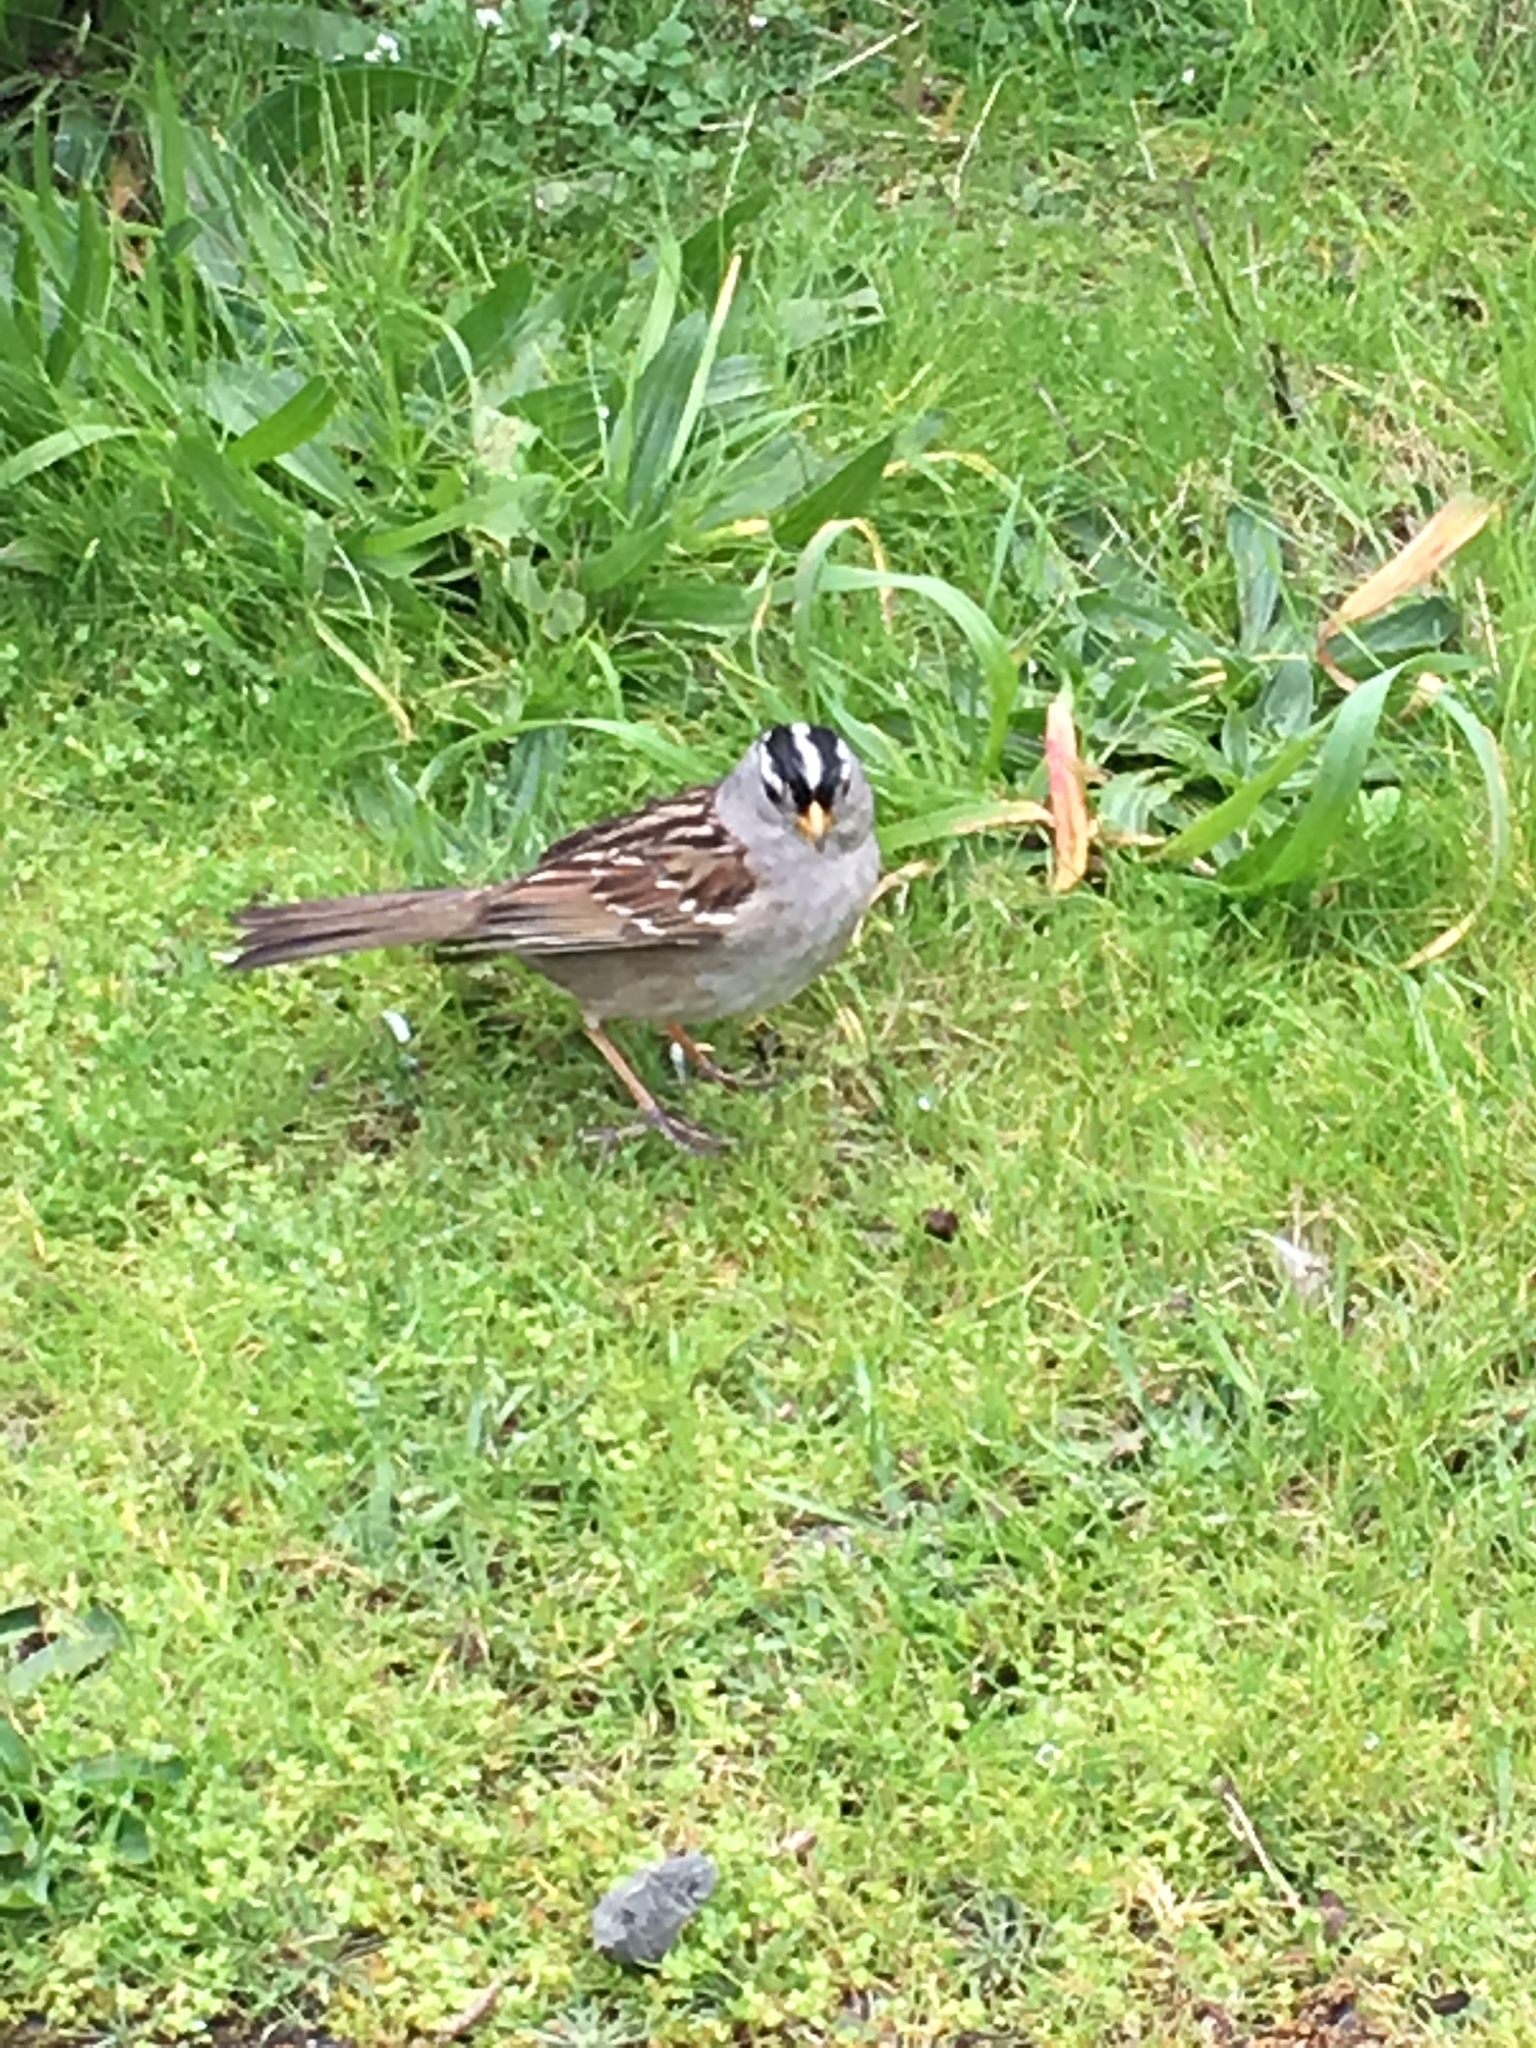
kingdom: Animalia
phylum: Chordata
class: Aves
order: Passeriformes
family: Passerellidae
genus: Zonotrichia
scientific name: Zonotrichia leucophrys
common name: White-crowned sparrow
